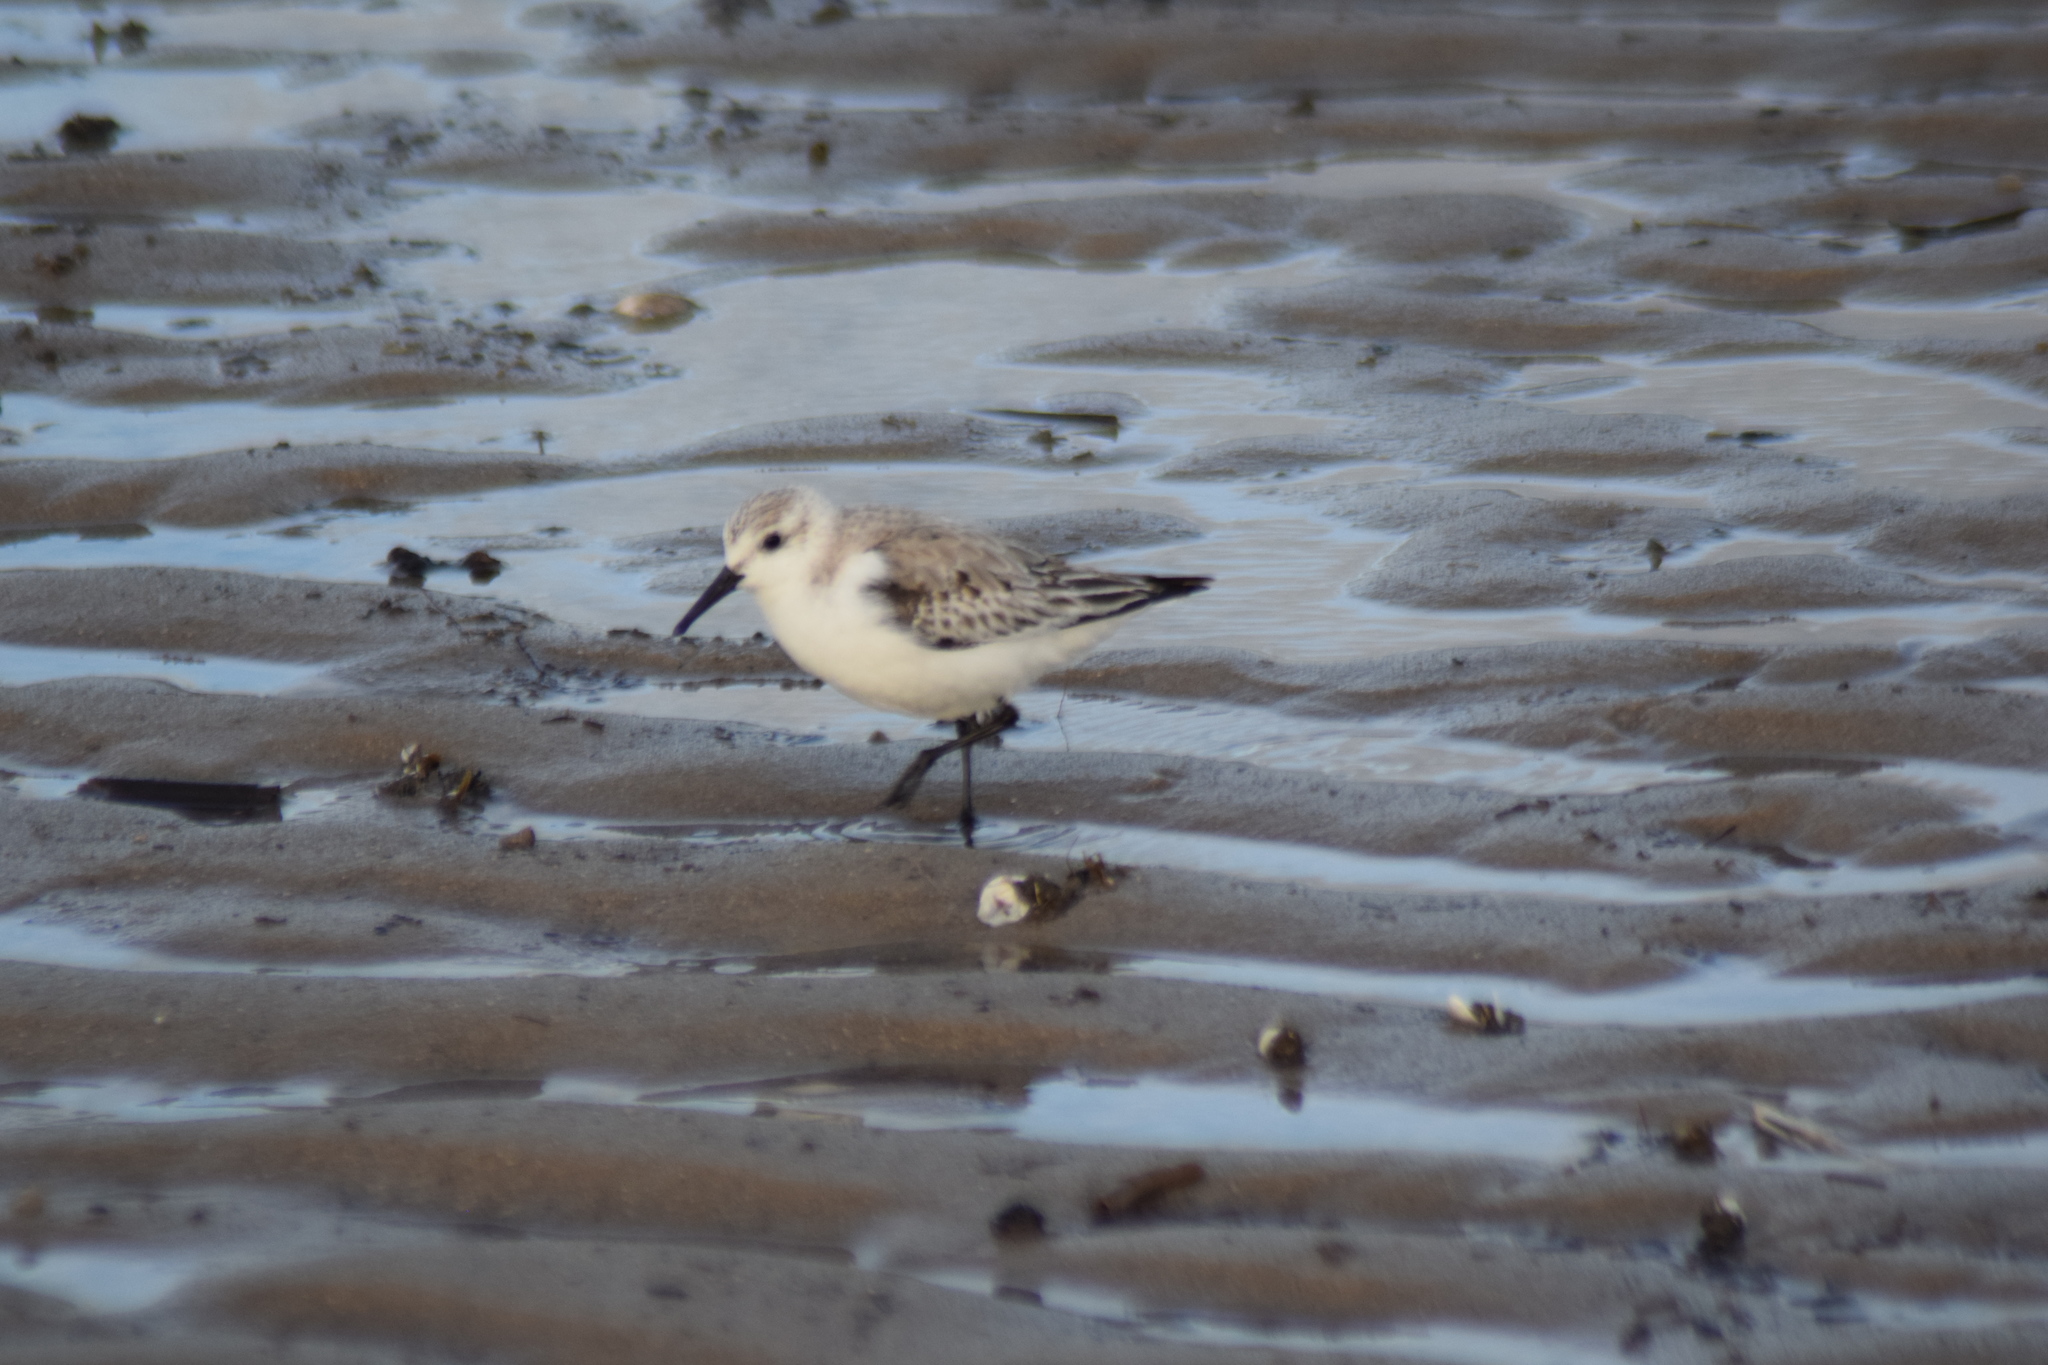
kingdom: Animalia
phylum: Chordata
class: Aves
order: Charadriiformes
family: Scolopacidae
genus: Calidris
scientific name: Calidris alba
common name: Sanderling
